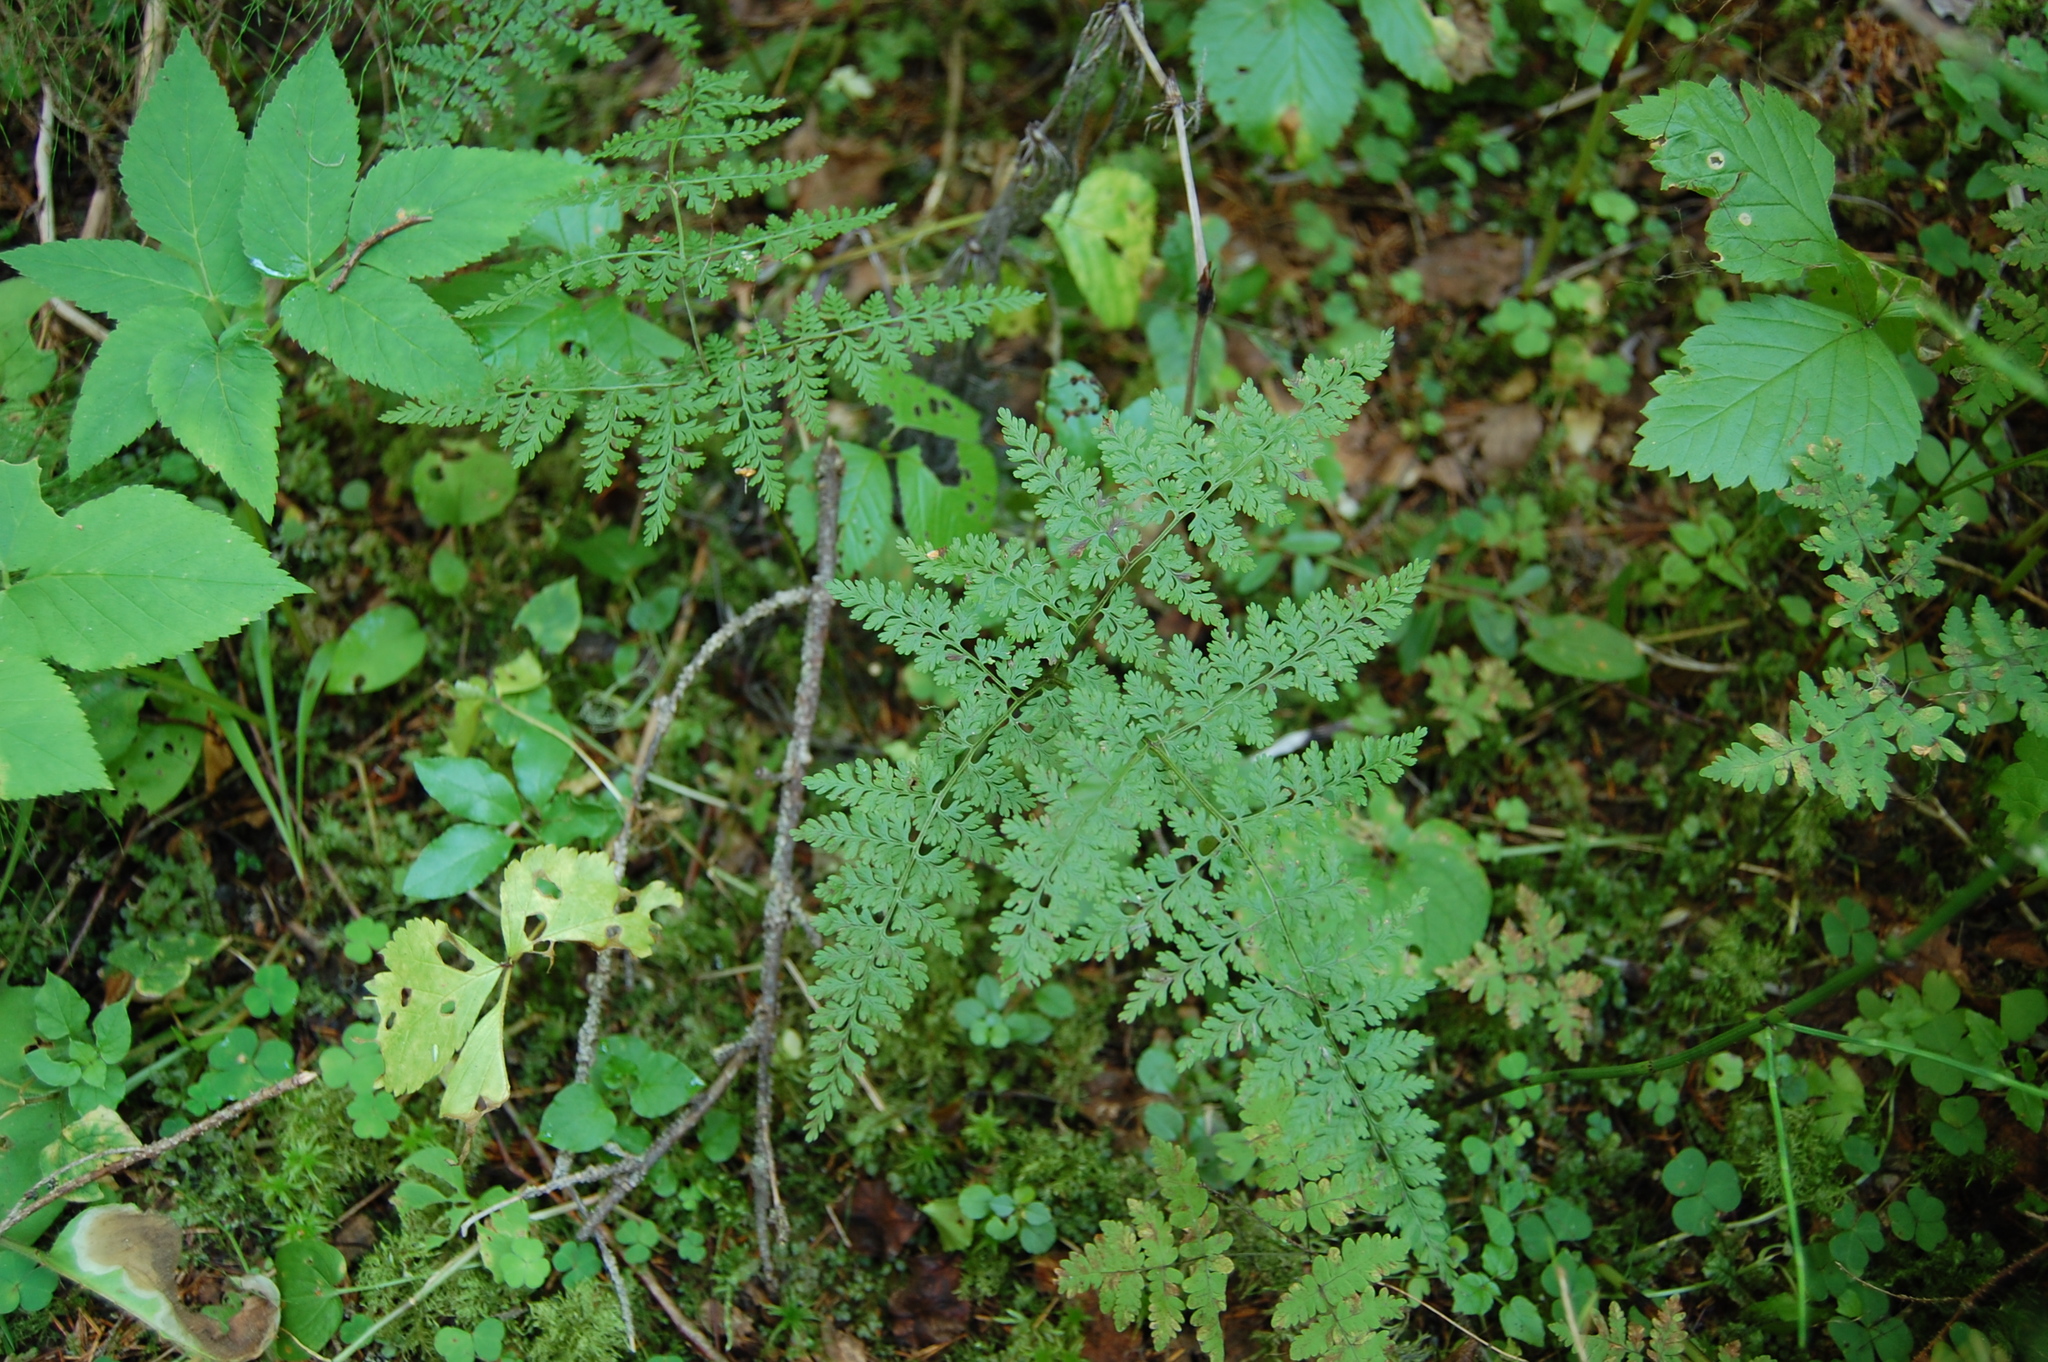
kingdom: Plantae
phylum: Tracheophyta
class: Polypodiopsida
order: Polypodiales
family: Cystopteridaceae
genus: Cystopteris
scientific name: Cystopteris montana
